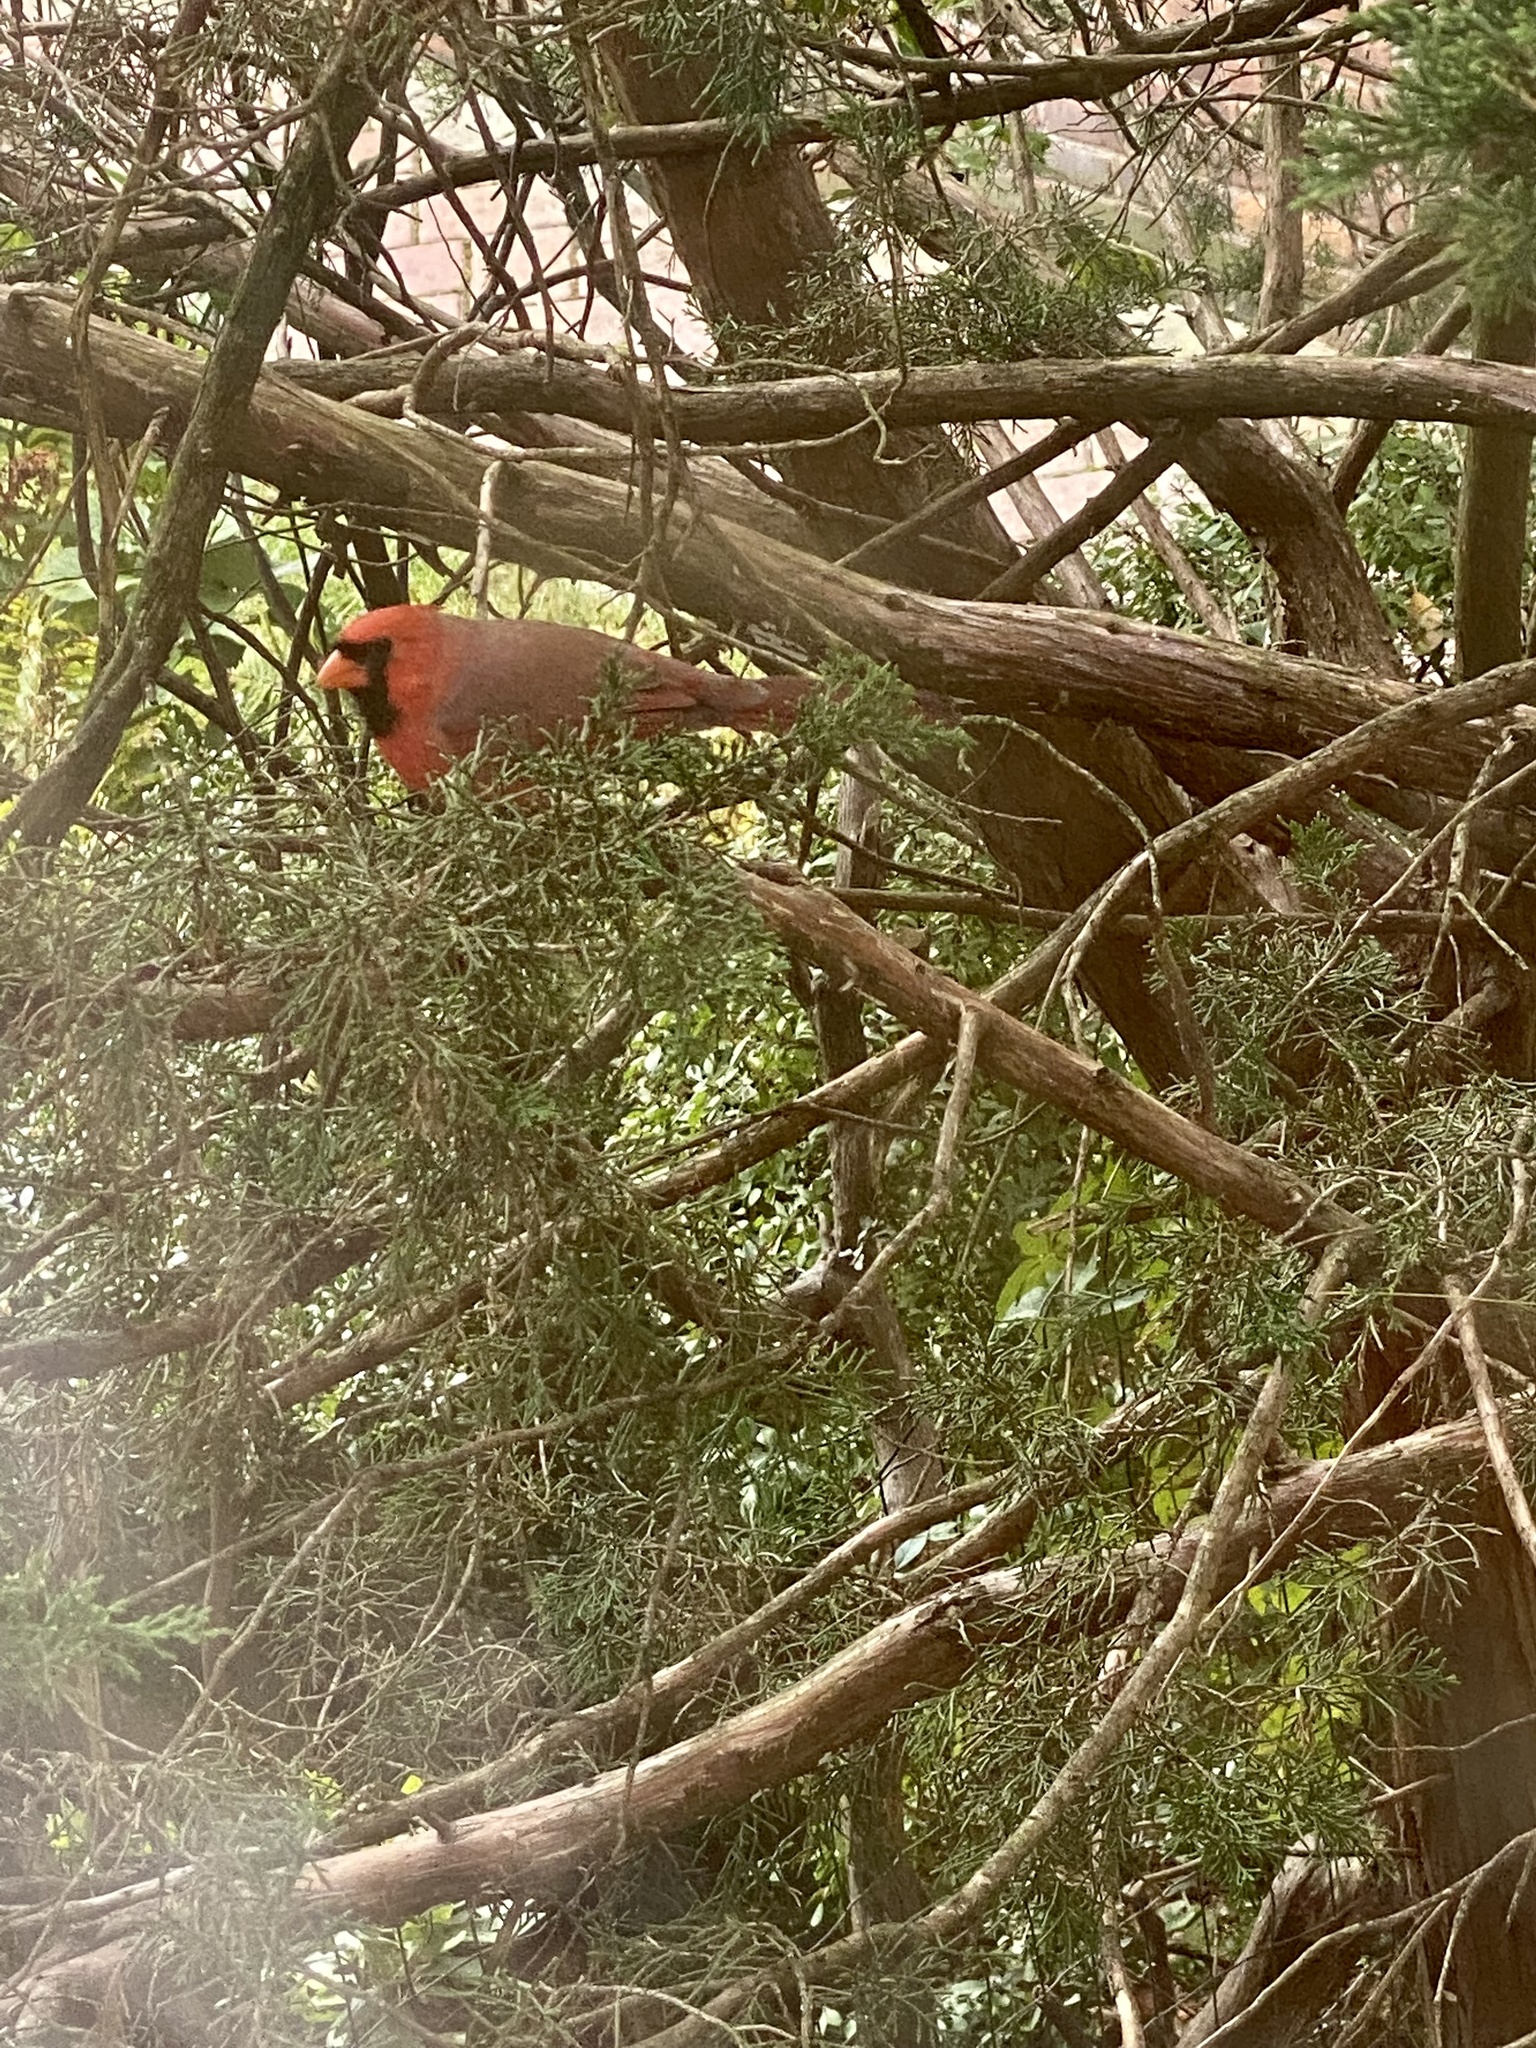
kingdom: Animalia
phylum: Chordata
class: Aves
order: Passeriformes
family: Cardinalidae
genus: Cardinalis
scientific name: Cardinalis cardinalis
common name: Northern cardinal
